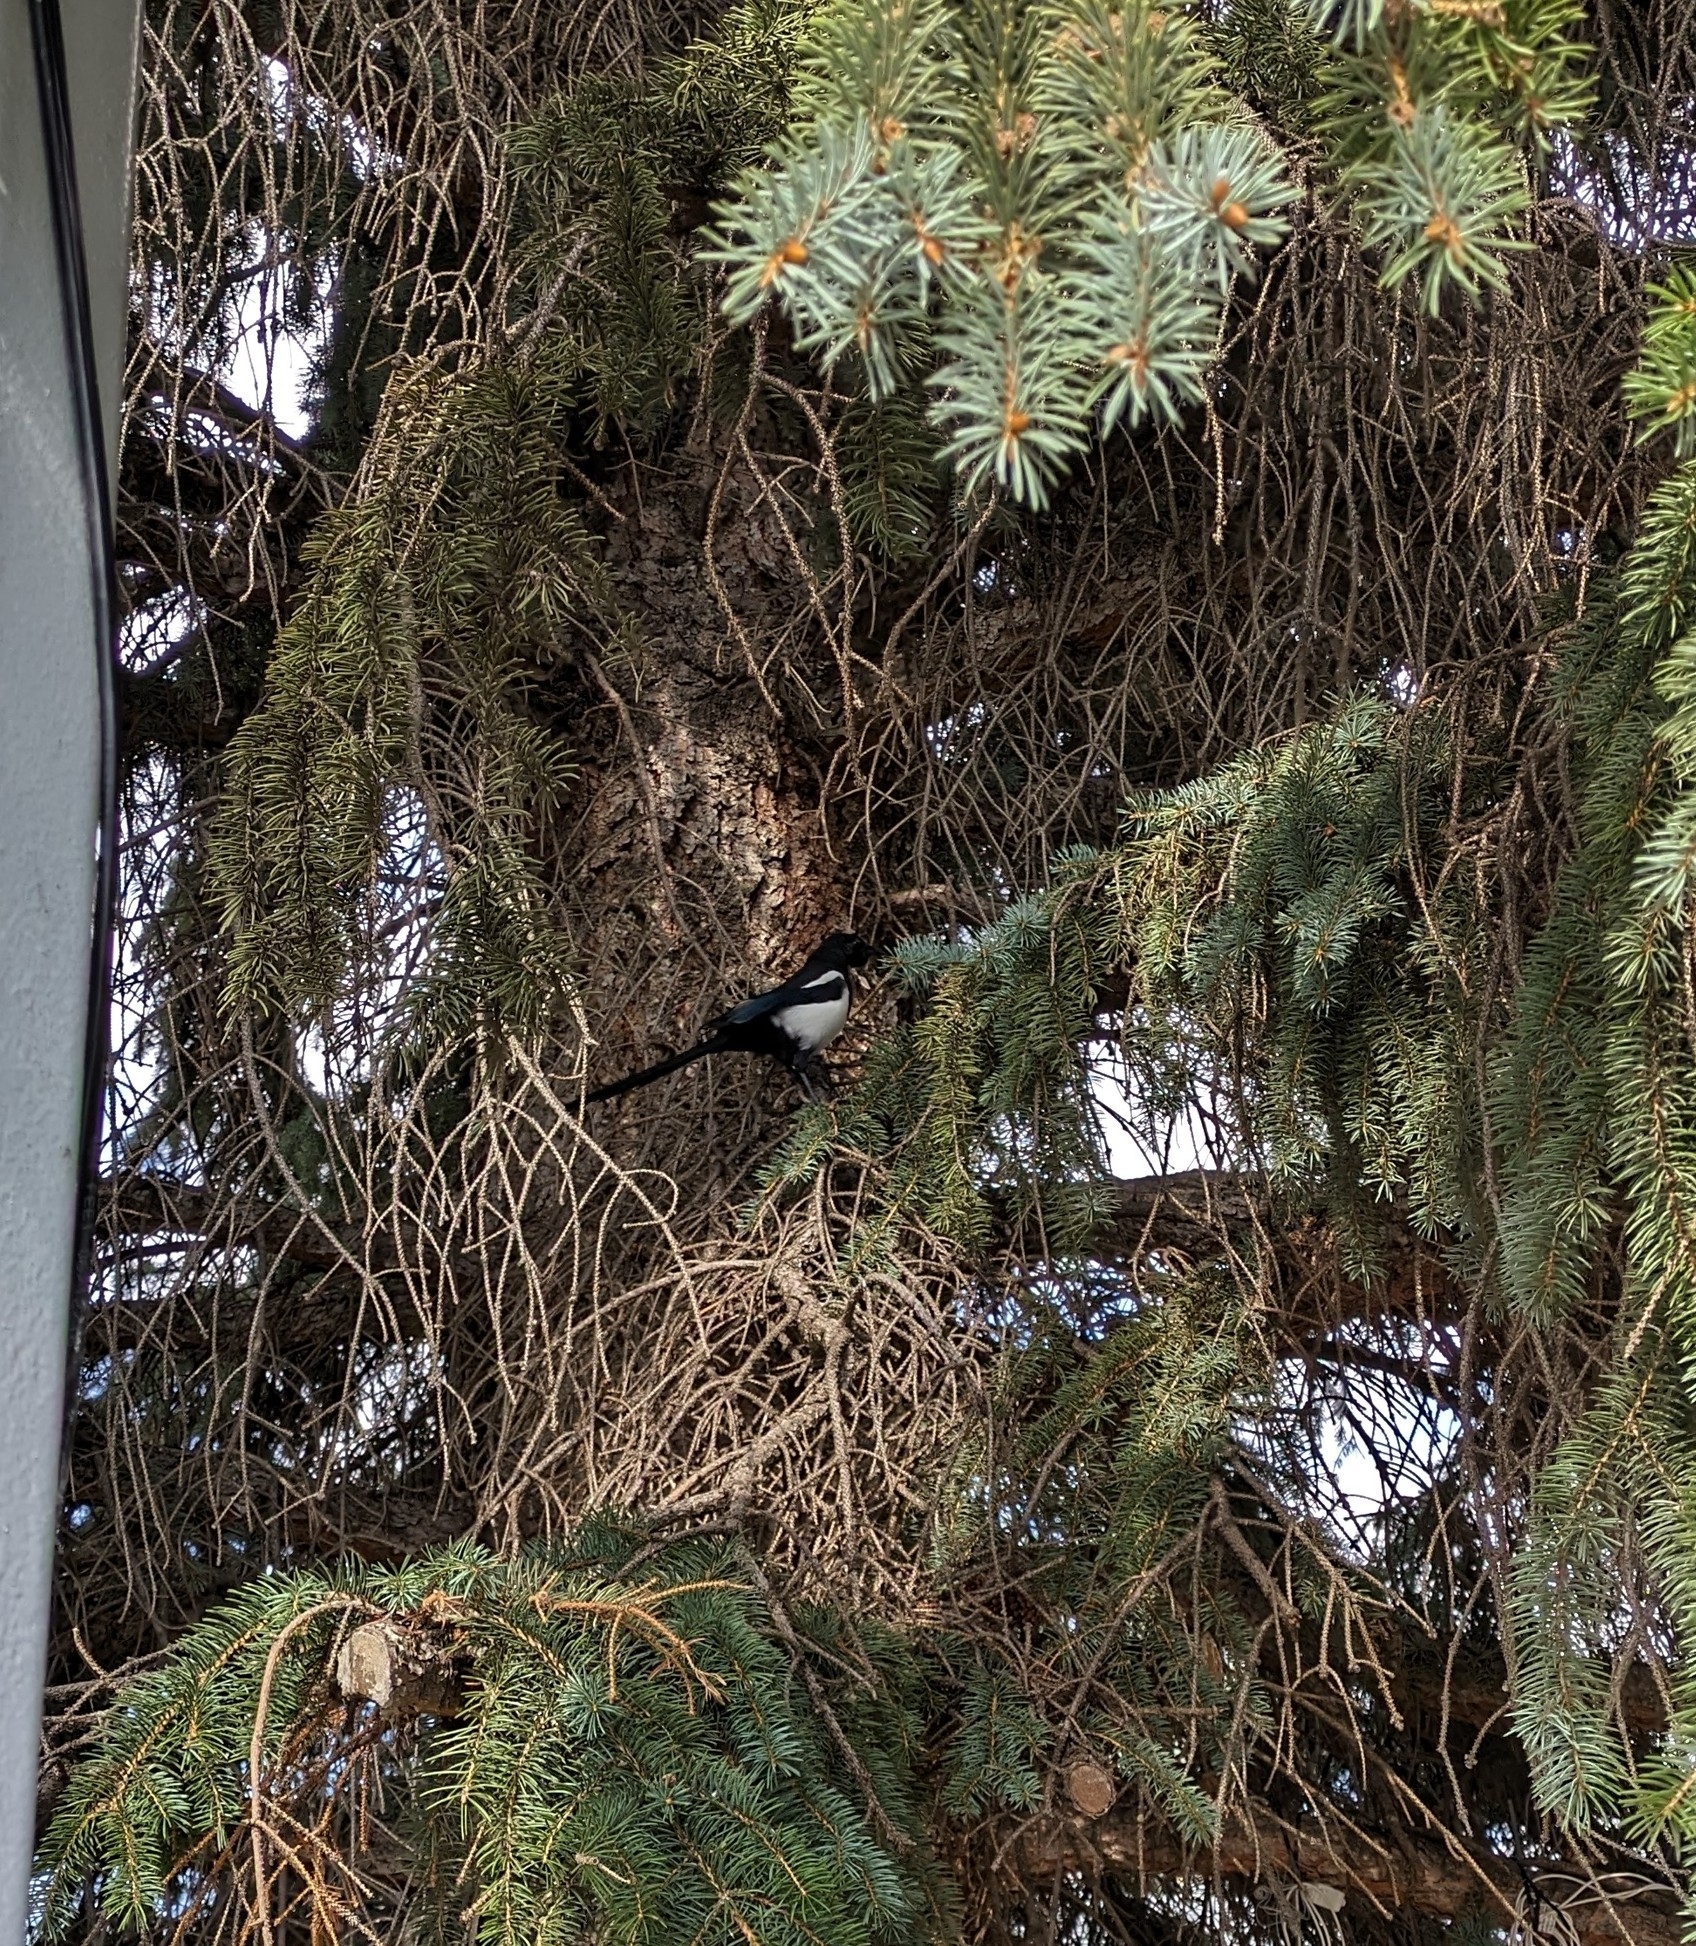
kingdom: Animalia
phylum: Chordata
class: Aves
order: Passeriformes
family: Corvidae
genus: Pica
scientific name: Pica hudsonia
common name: Black-billed magpie
